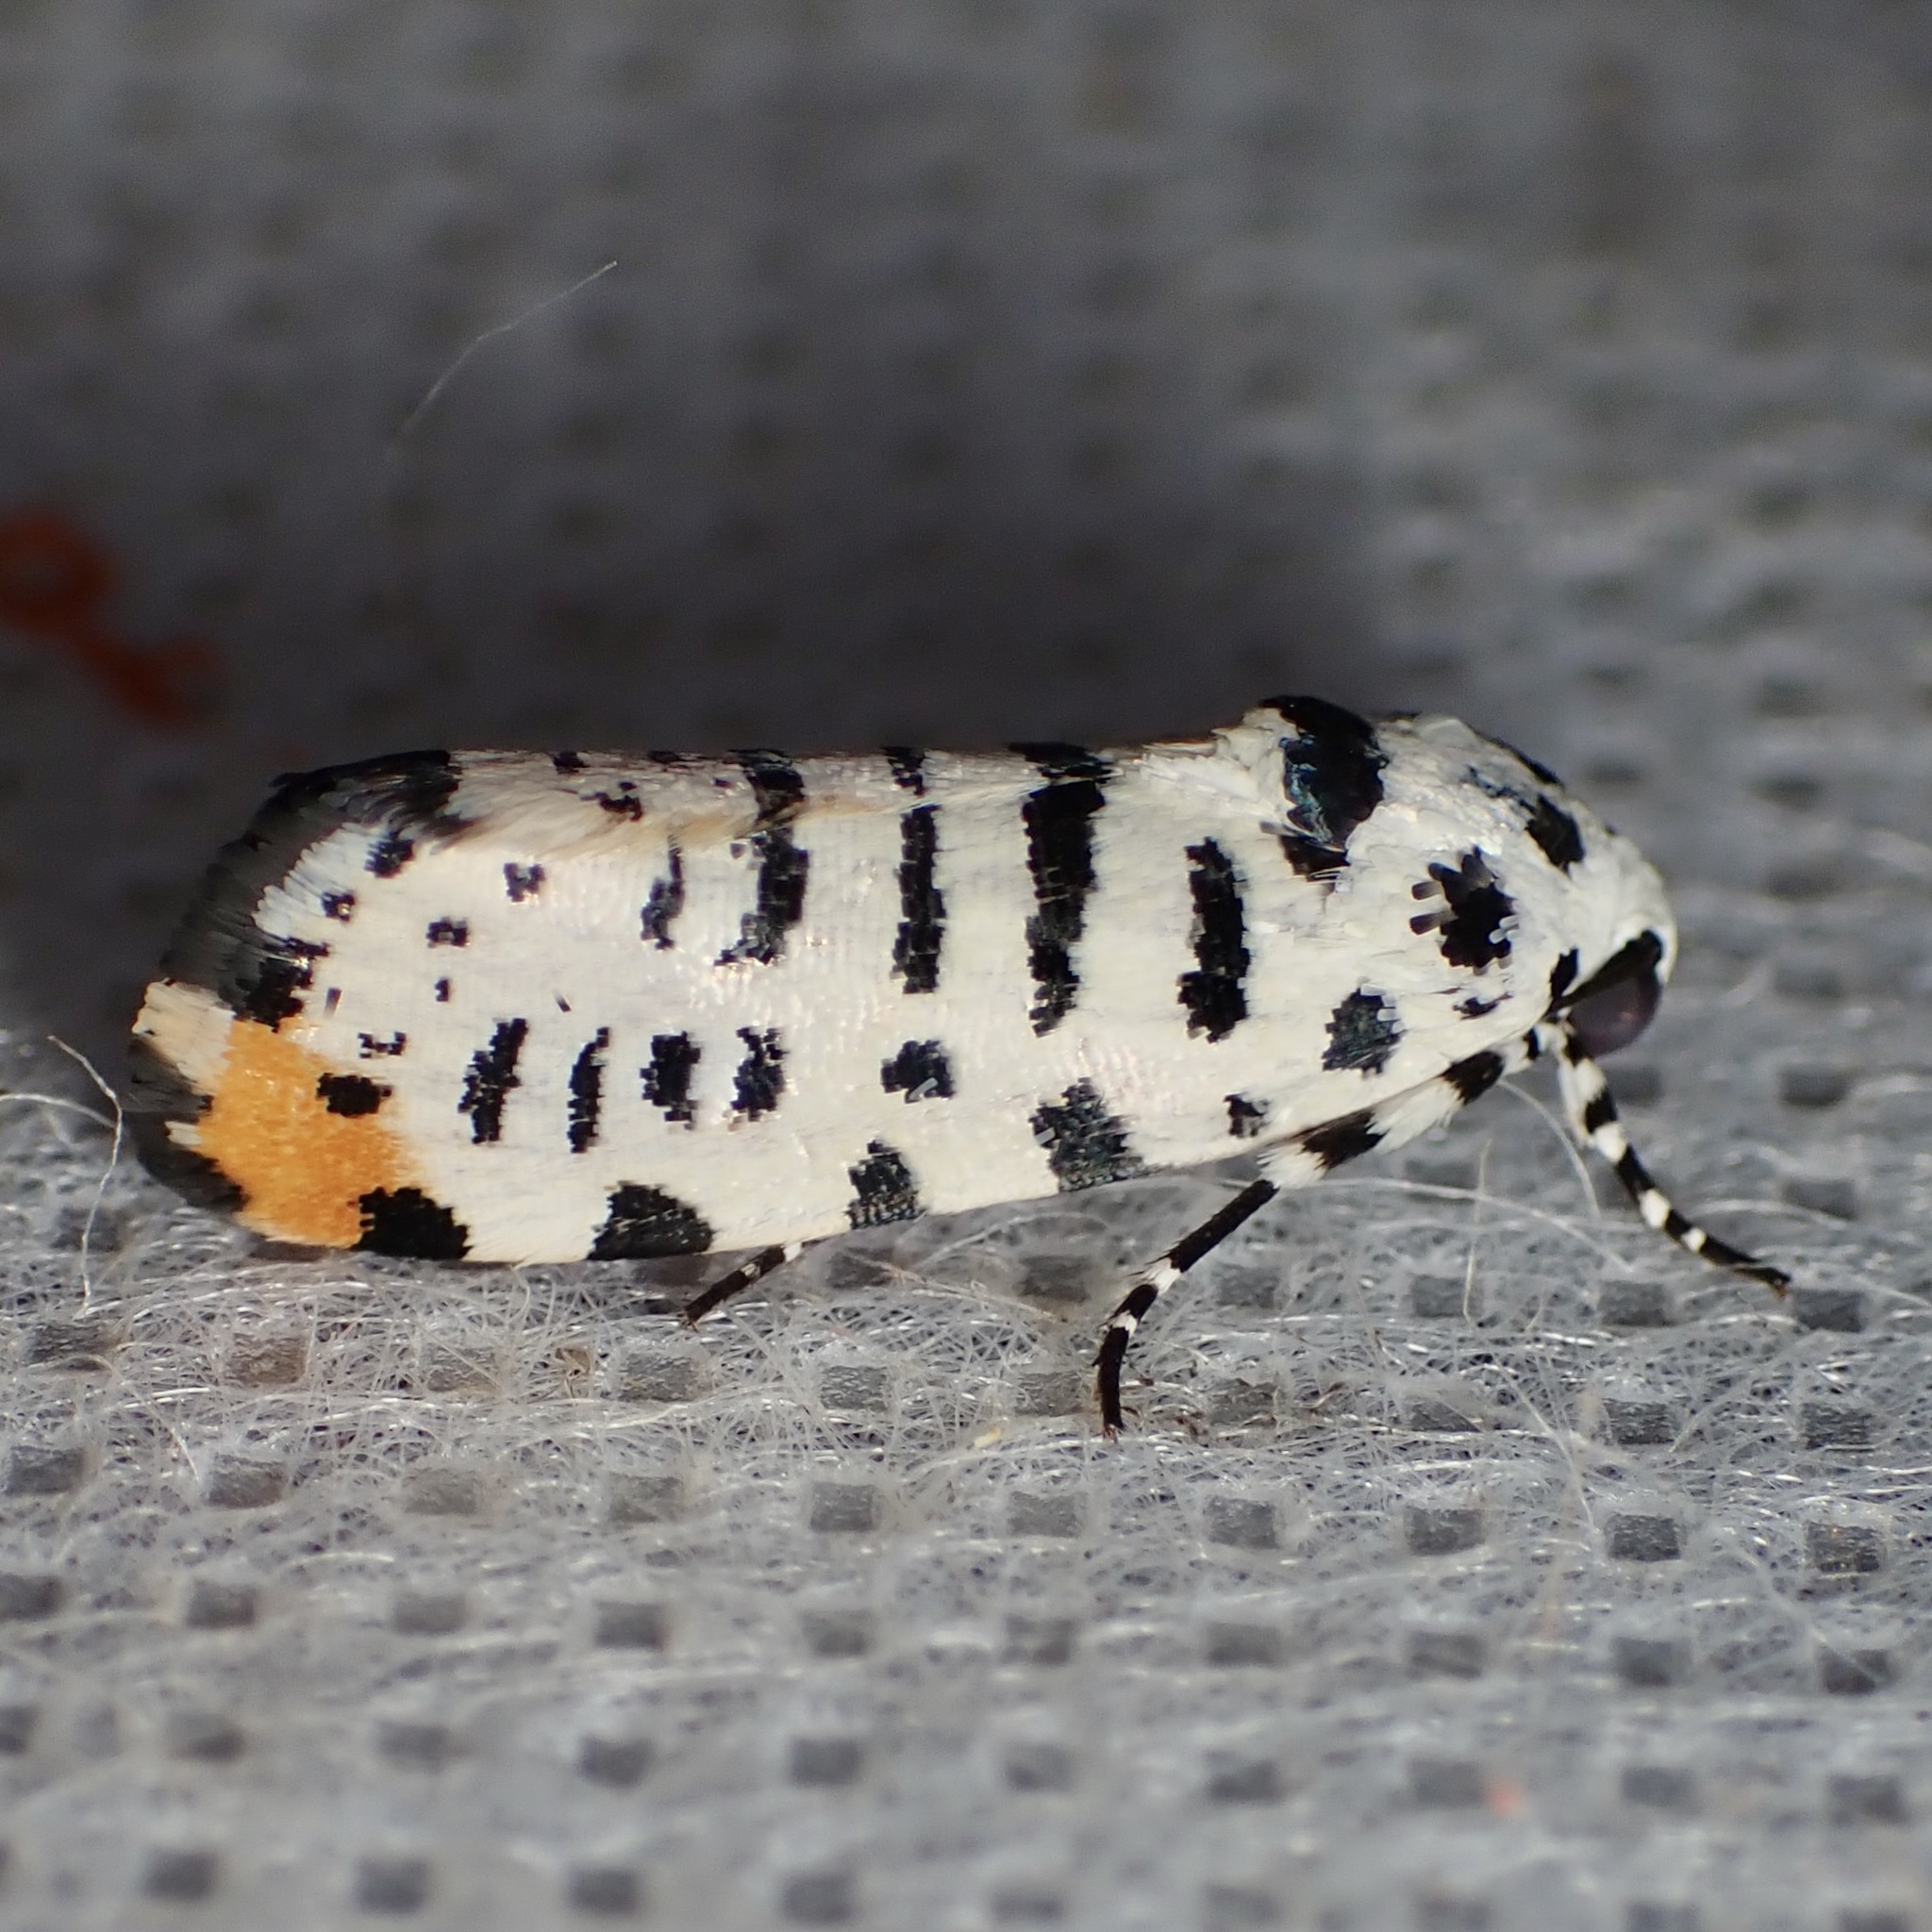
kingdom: Animalia
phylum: Arthropoda
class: Insecta
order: Lepidoptera
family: Noctuidae
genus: Acontia
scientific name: Acontia idella
